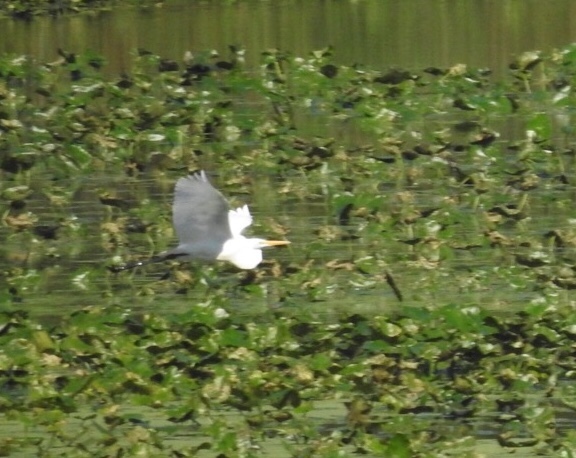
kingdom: Animalia
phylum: Chordata
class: Aves
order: Pelecaniformes
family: Ardeidae
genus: Ardea
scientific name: Ardea alba
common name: Great egret
